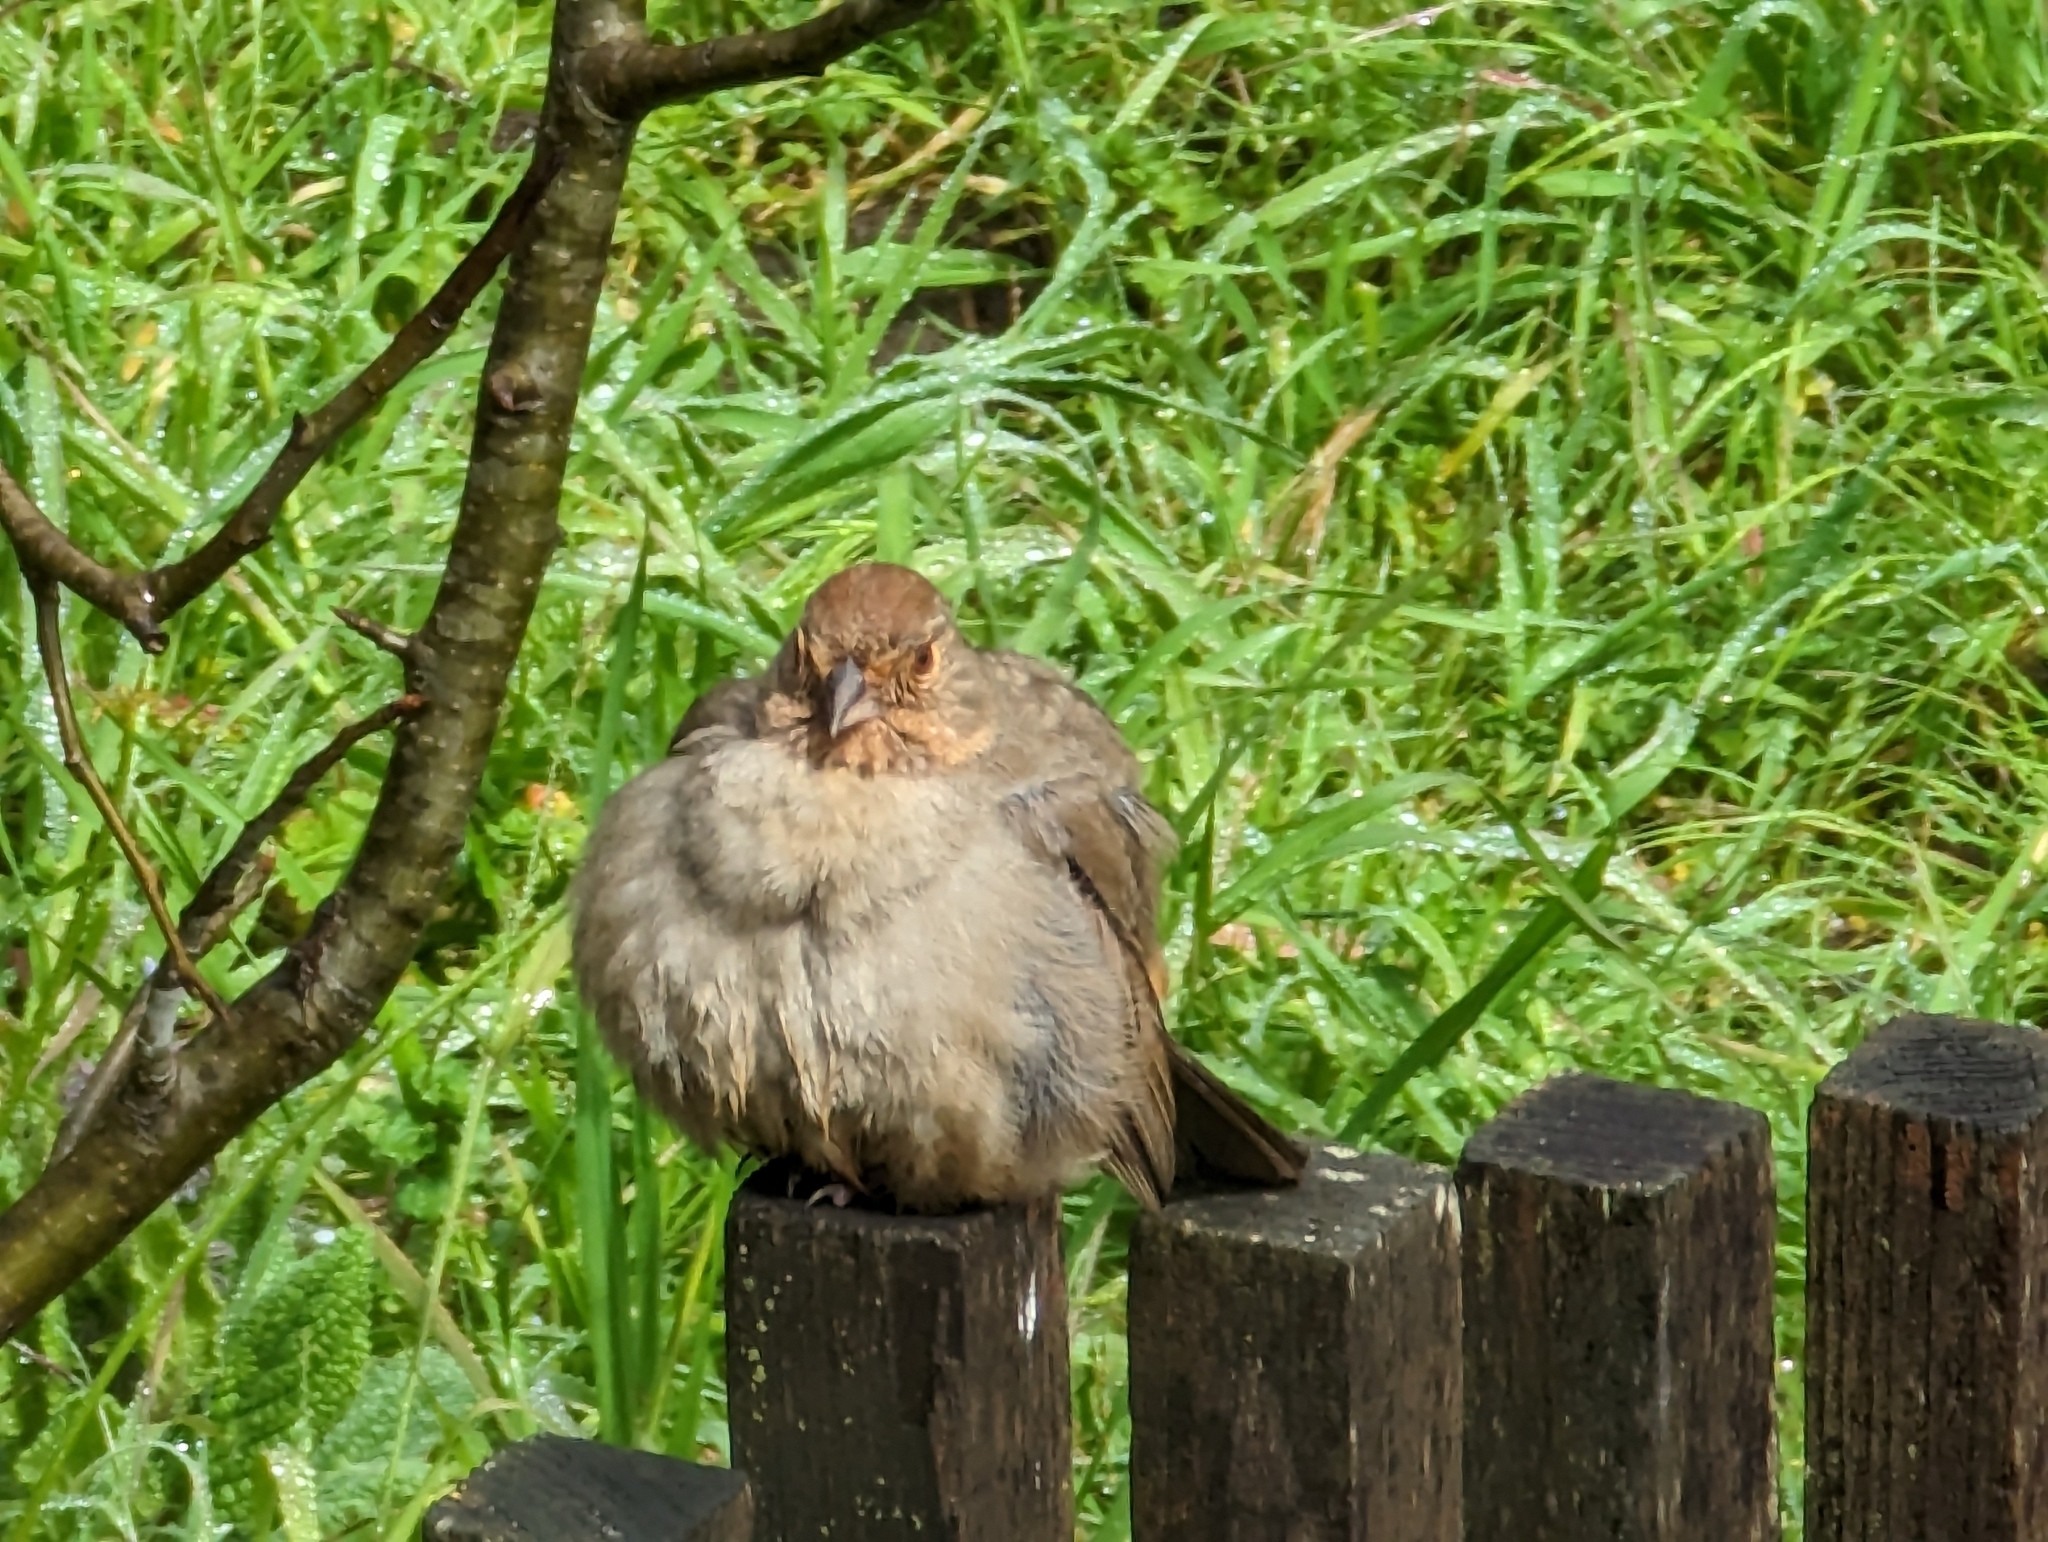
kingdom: Animalia
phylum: Chordata
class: Aves
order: Passeriformes
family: Passerellidae
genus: Melozone
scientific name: Melozone crissalis
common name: California towhee
